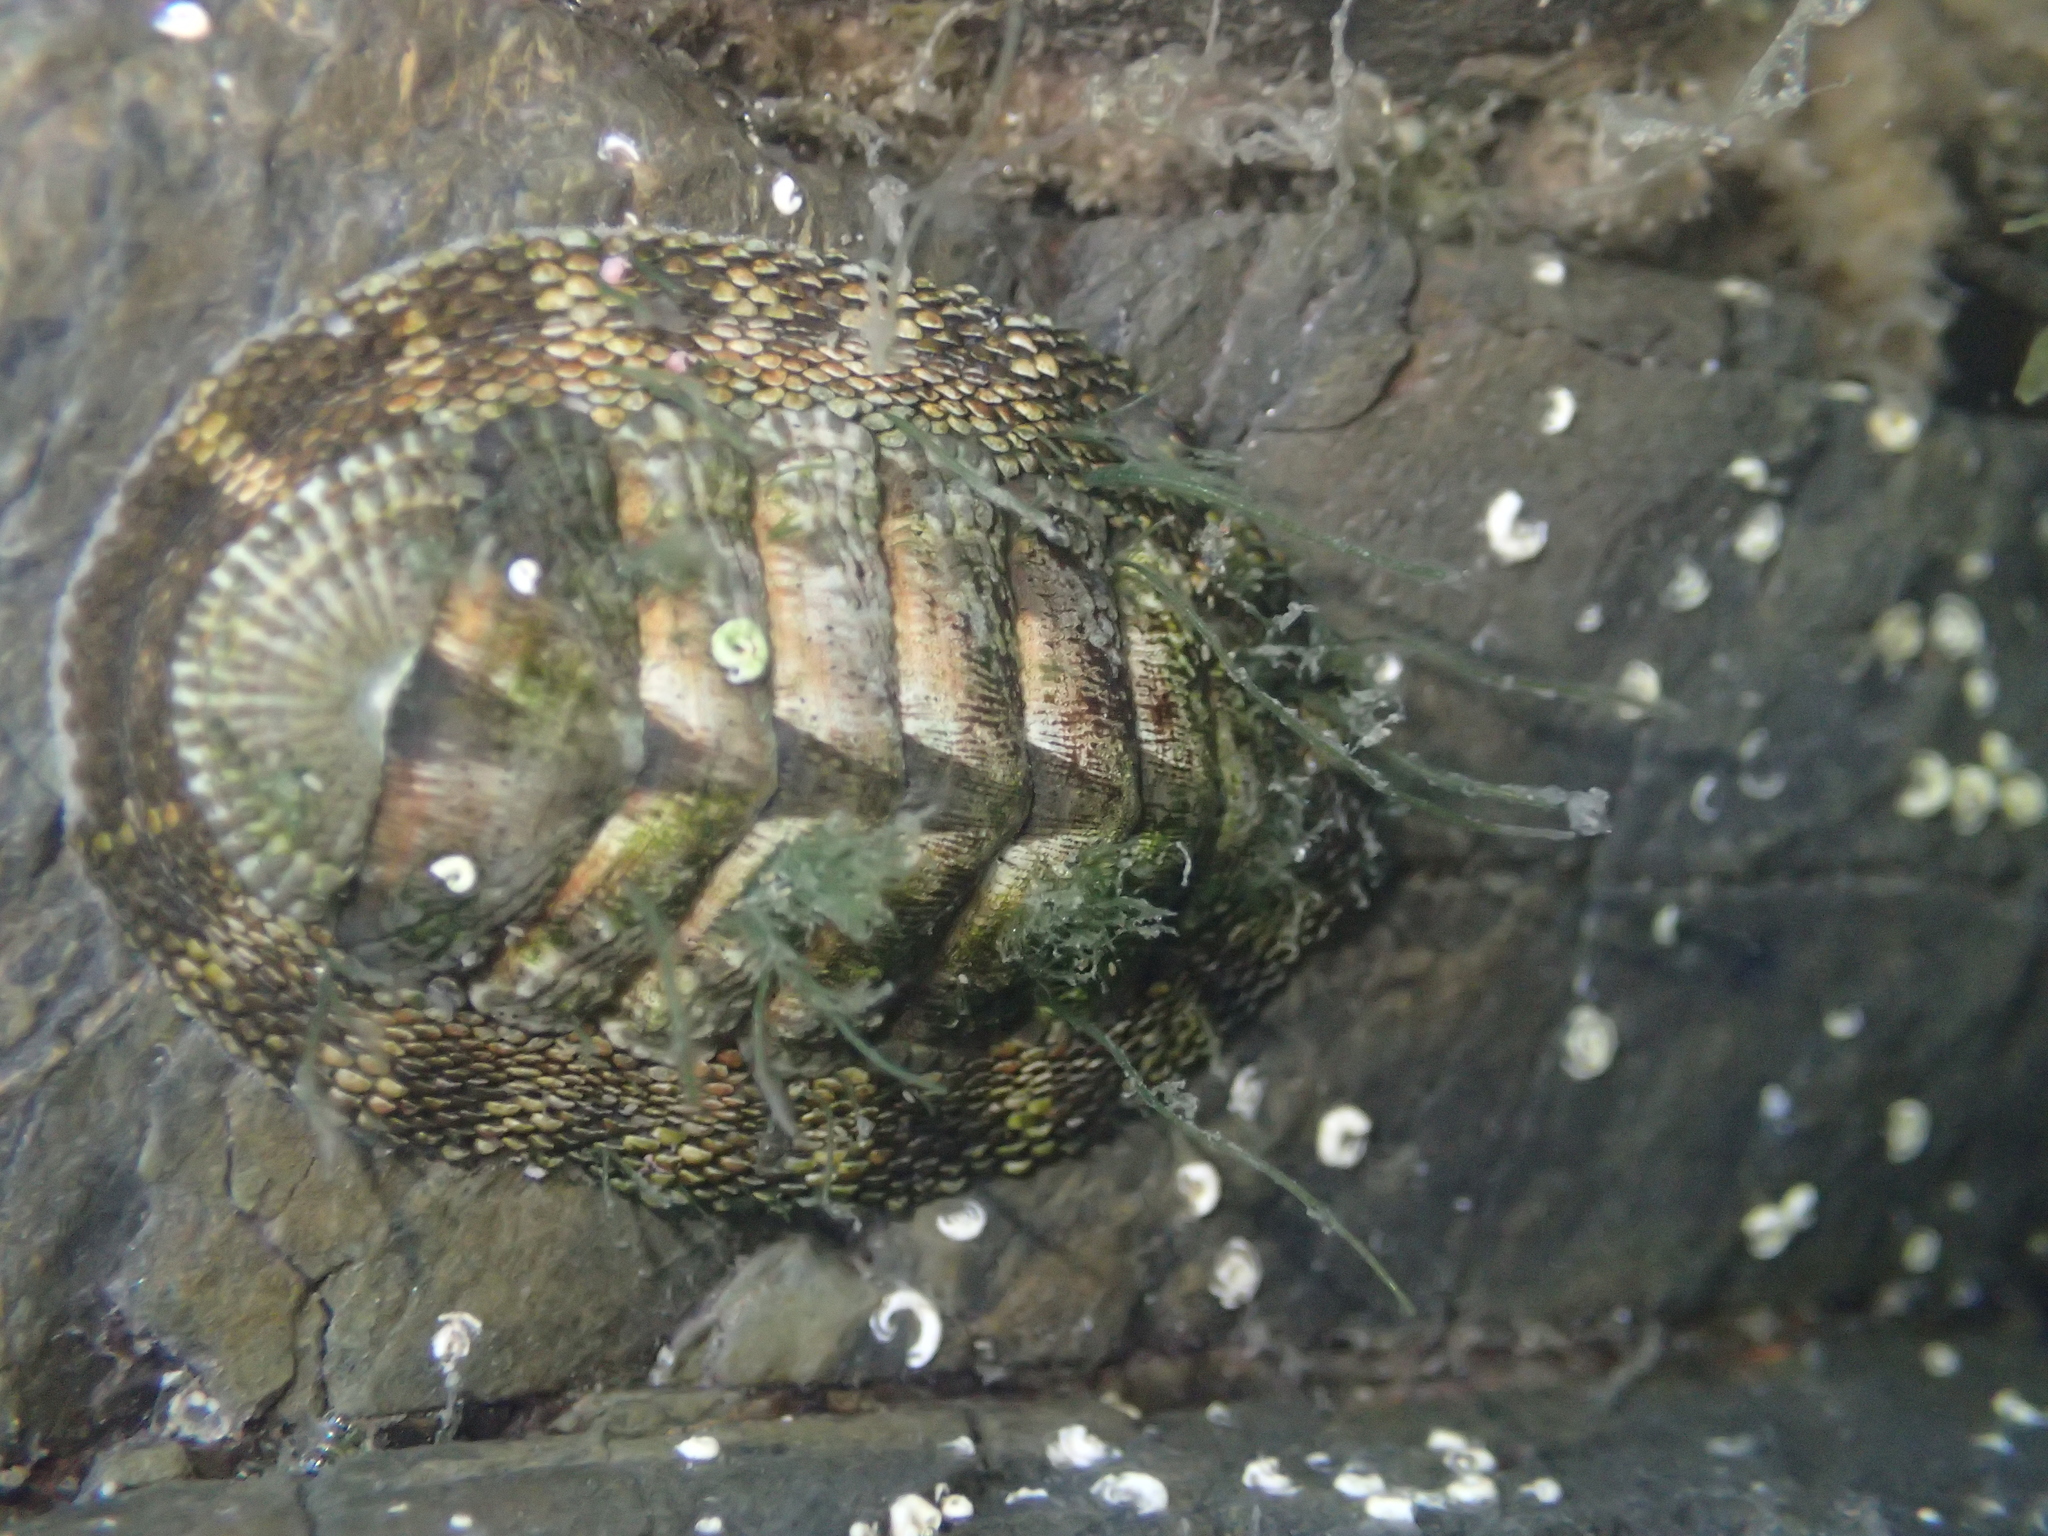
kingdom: Animalia
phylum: Mollusca
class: Polyplacophora
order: Chitonida
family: Chitonidae
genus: Sypharochiton
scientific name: Sypharochiton pelliserpentis
